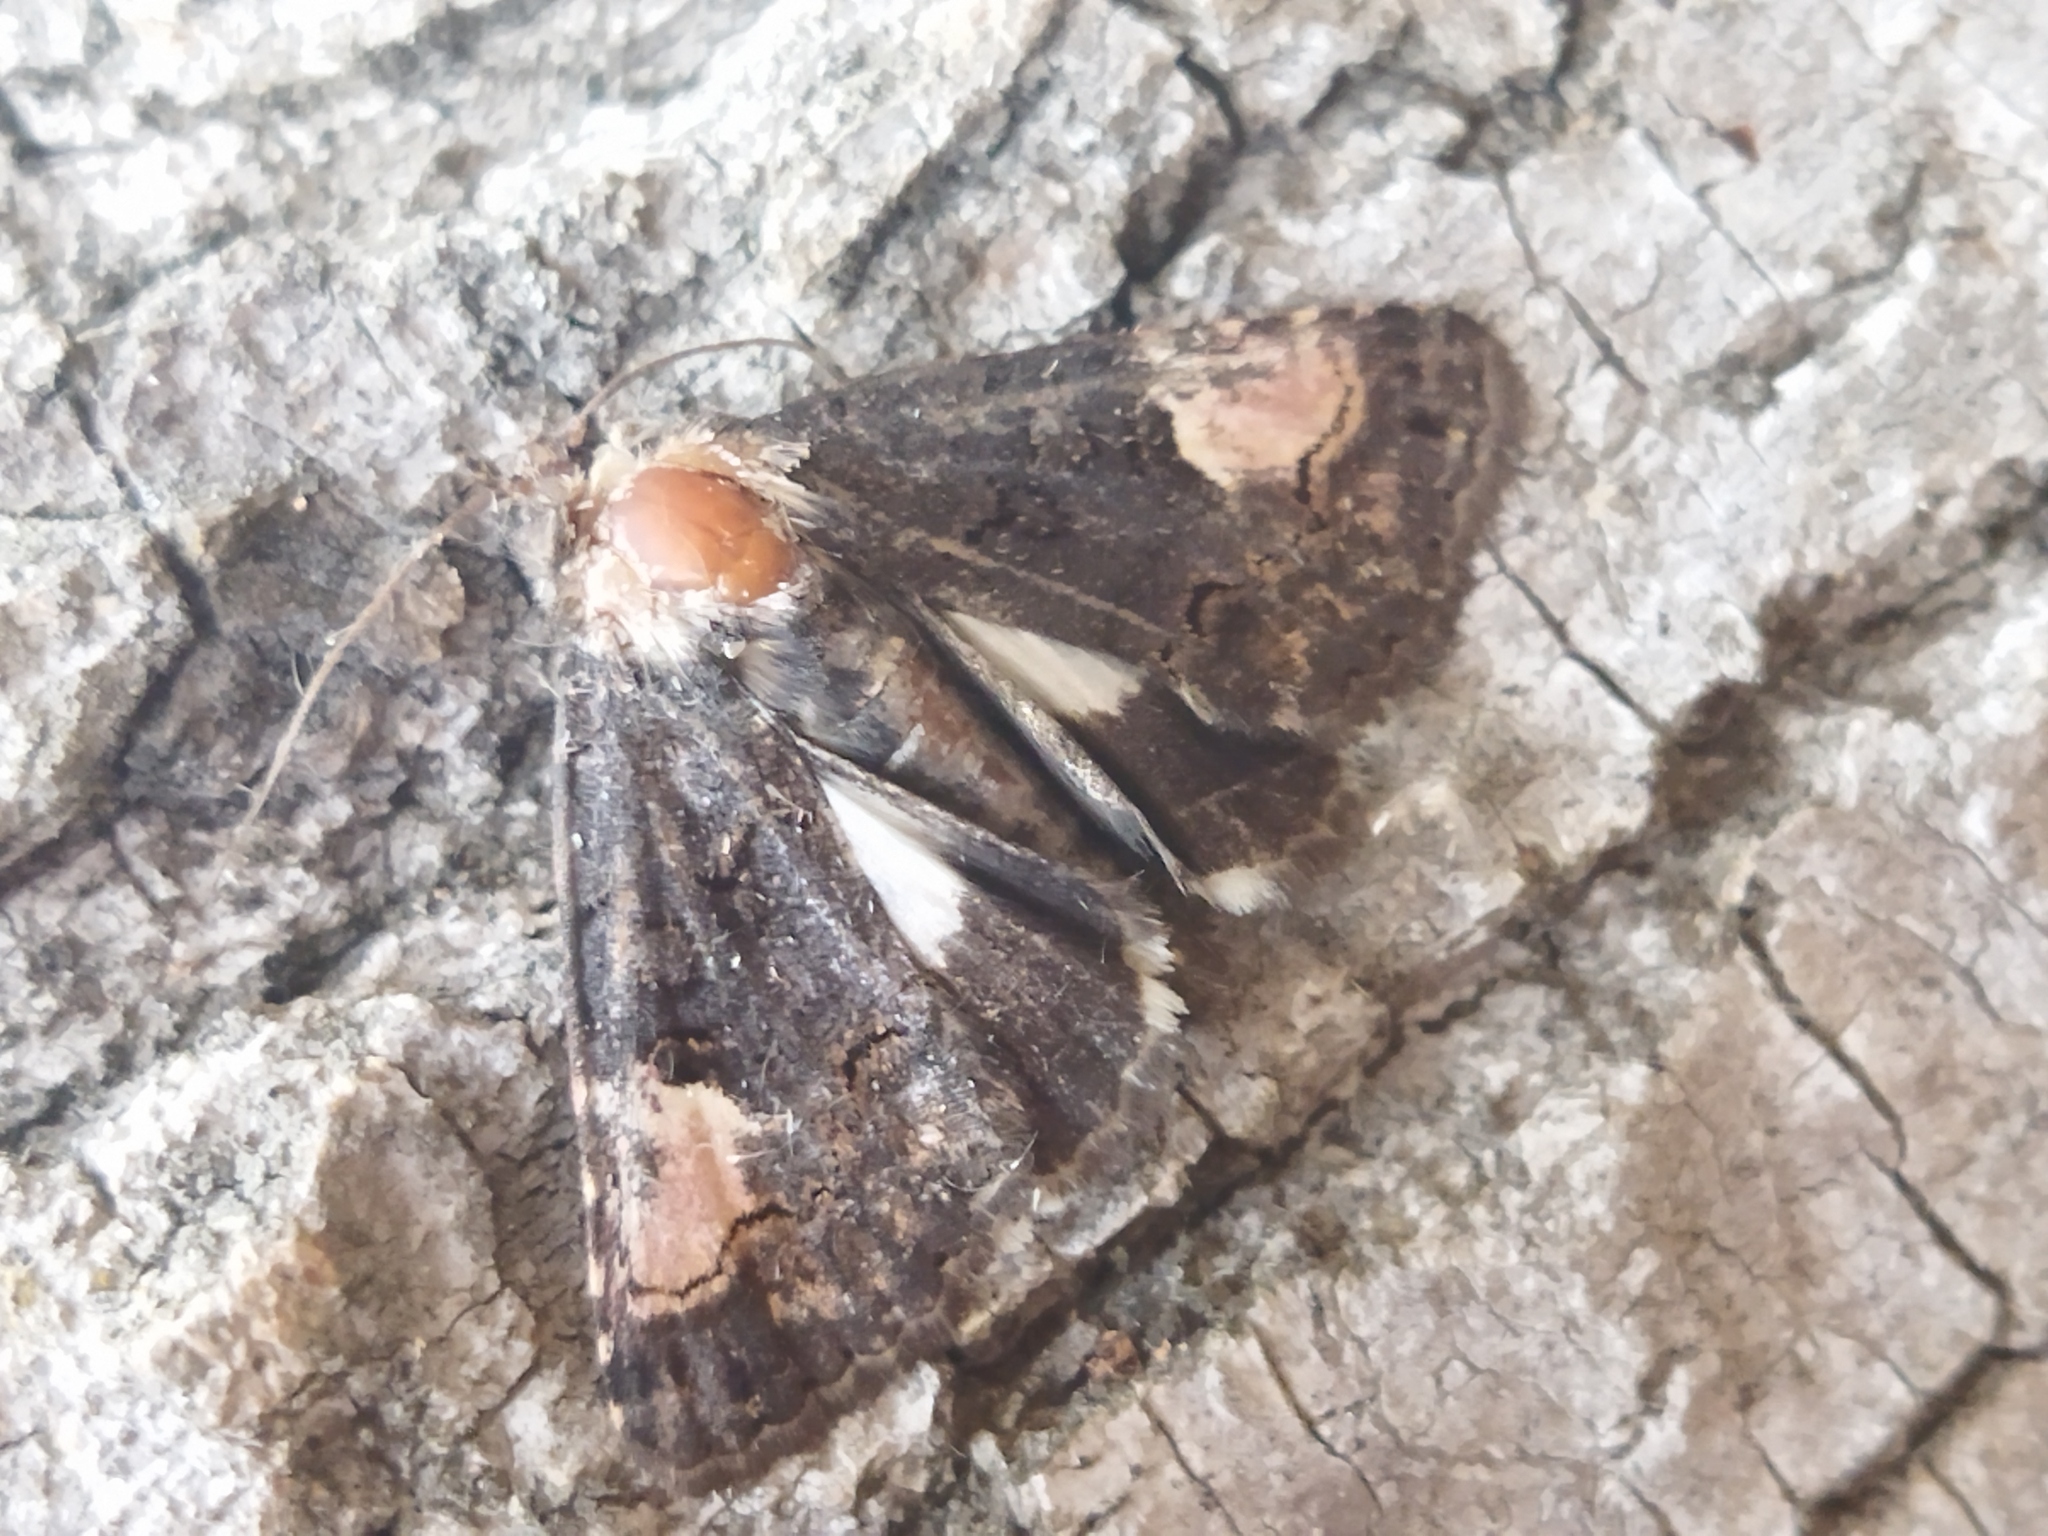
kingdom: Animalia
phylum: Arthropoda
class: Insecta
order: Lepidoptera
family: Noctuidae
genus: Aedia
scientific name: Aedia funesta
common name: The druid
